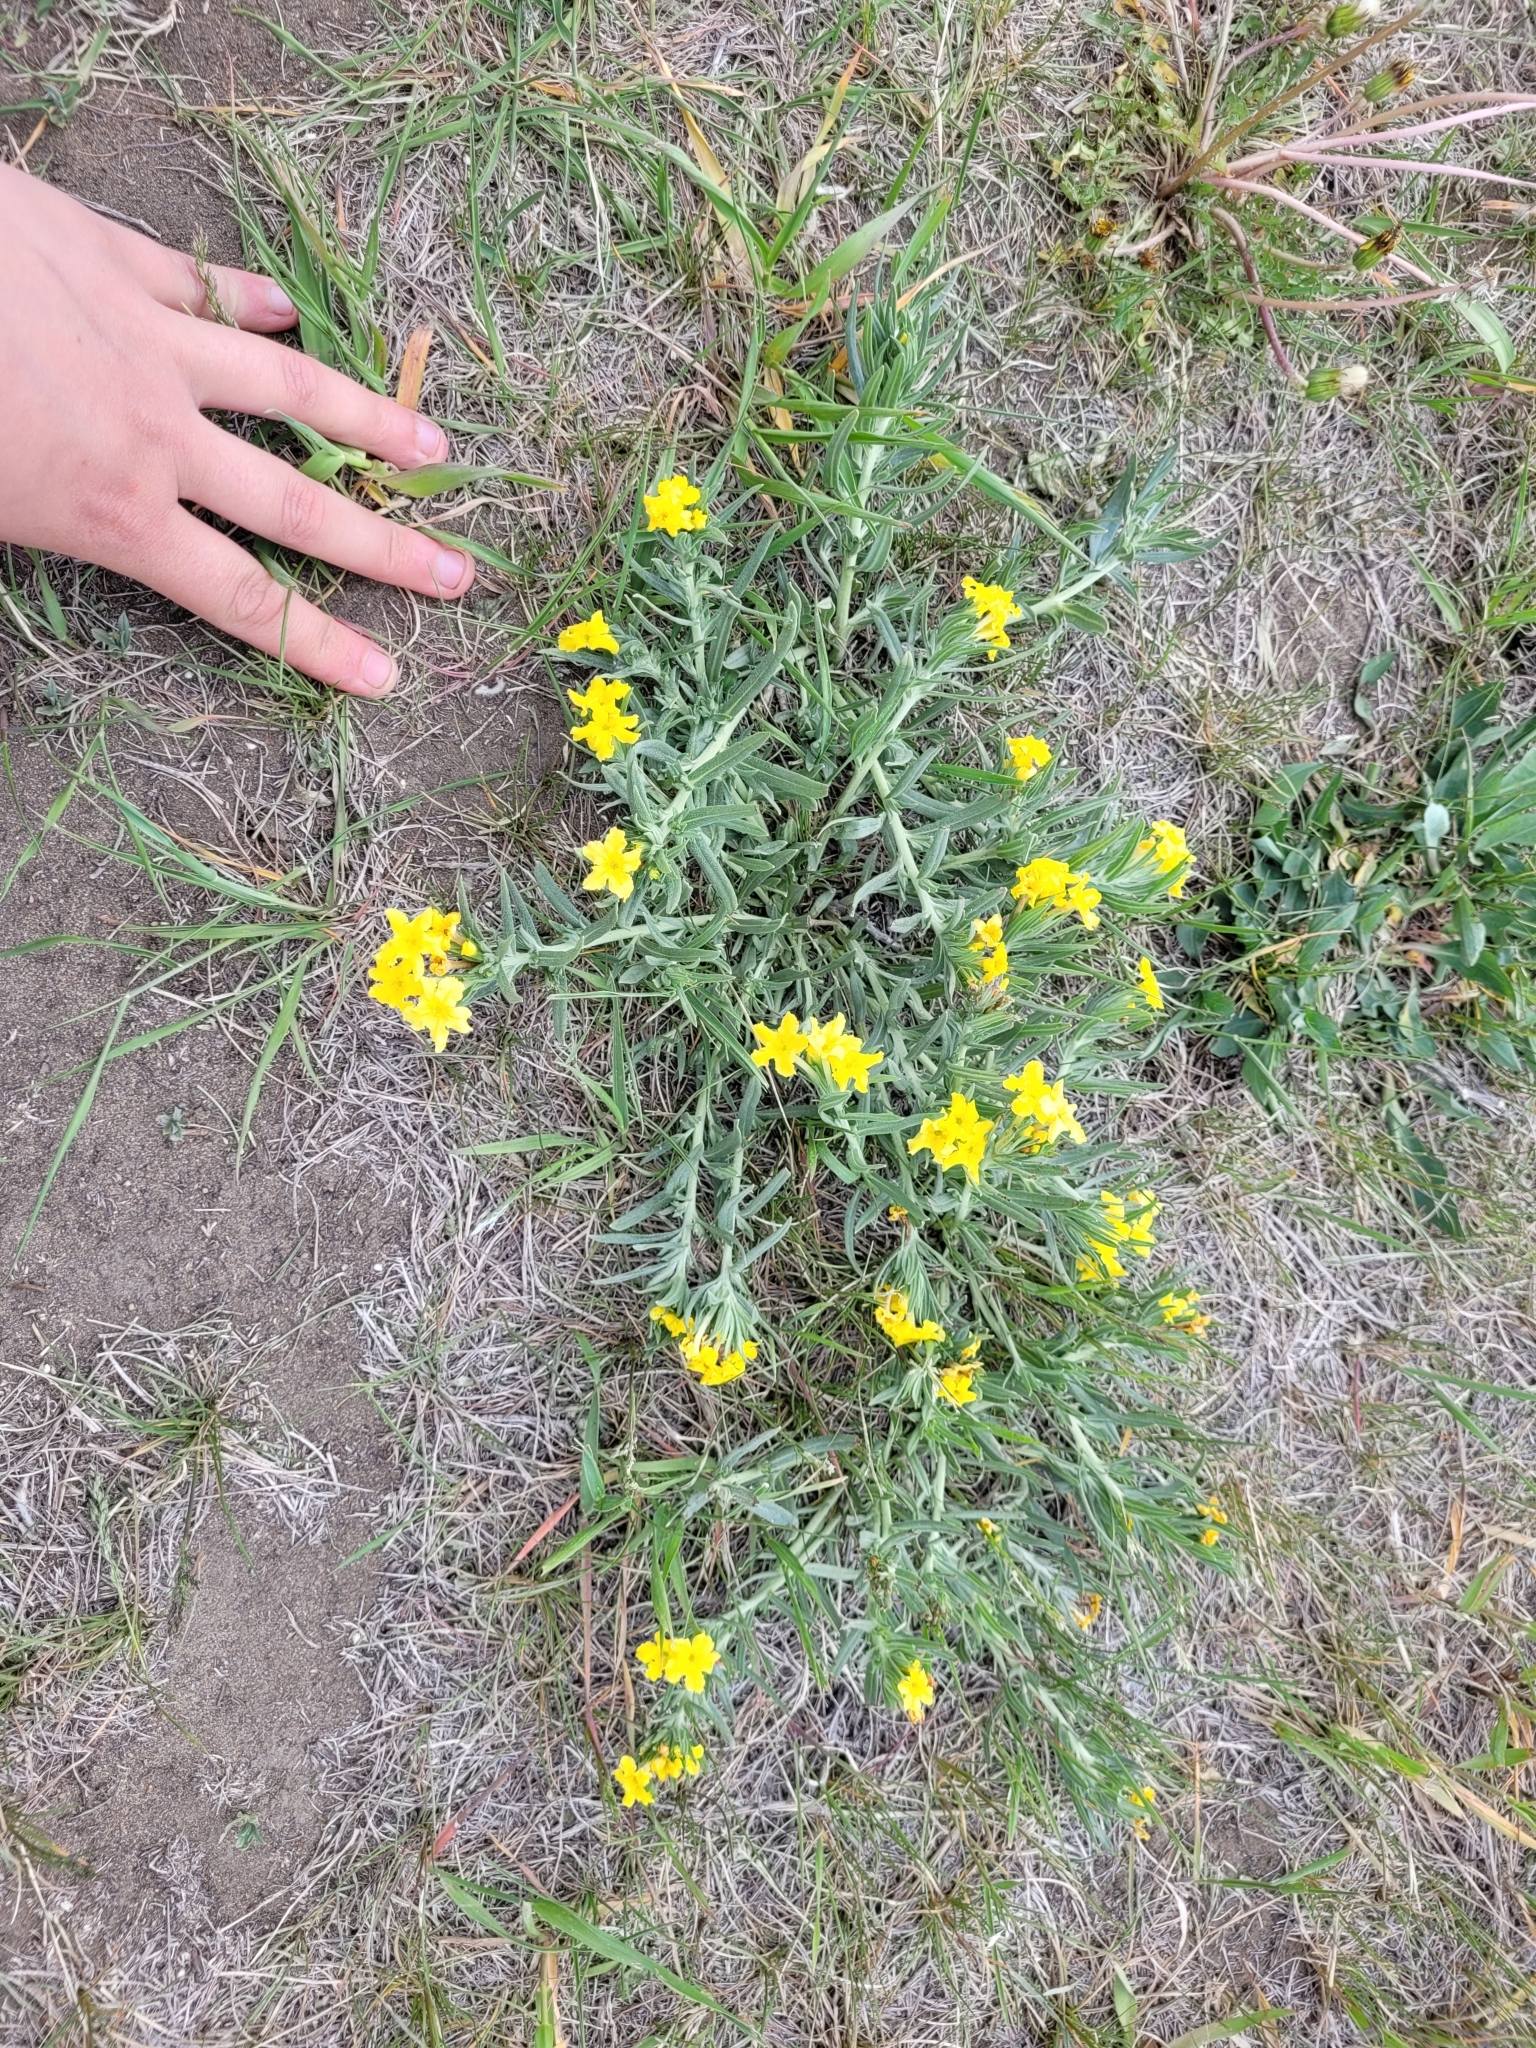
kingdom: Plantae
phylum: Tracheophyta
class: Magnoliopsida
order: Boraginales
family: Boraginaceae
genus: Lithospermum
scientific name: Lithospermum incisum
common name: Fringed gromwell
